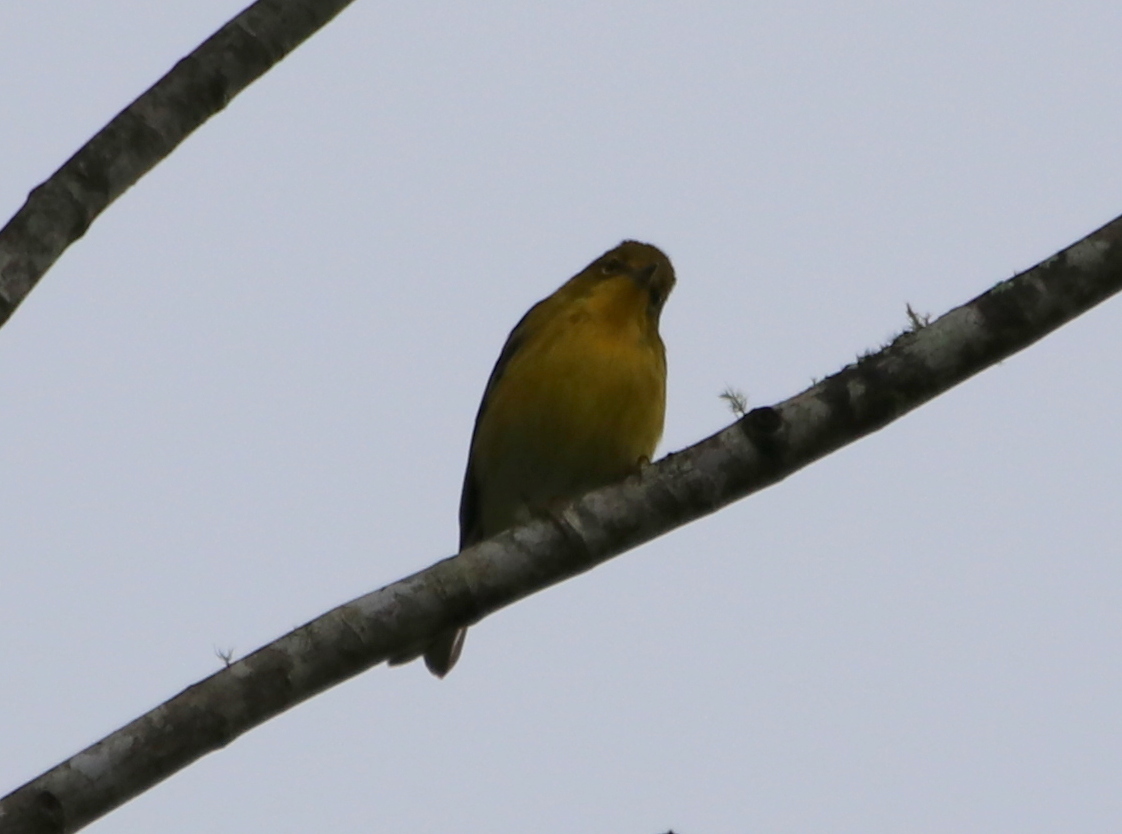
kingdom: Animalia
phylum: Chordata
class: Aves
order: Passeriformes
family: Parulidae
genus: Setophaga
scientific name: Setophaga pinus
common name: Pine warbler
